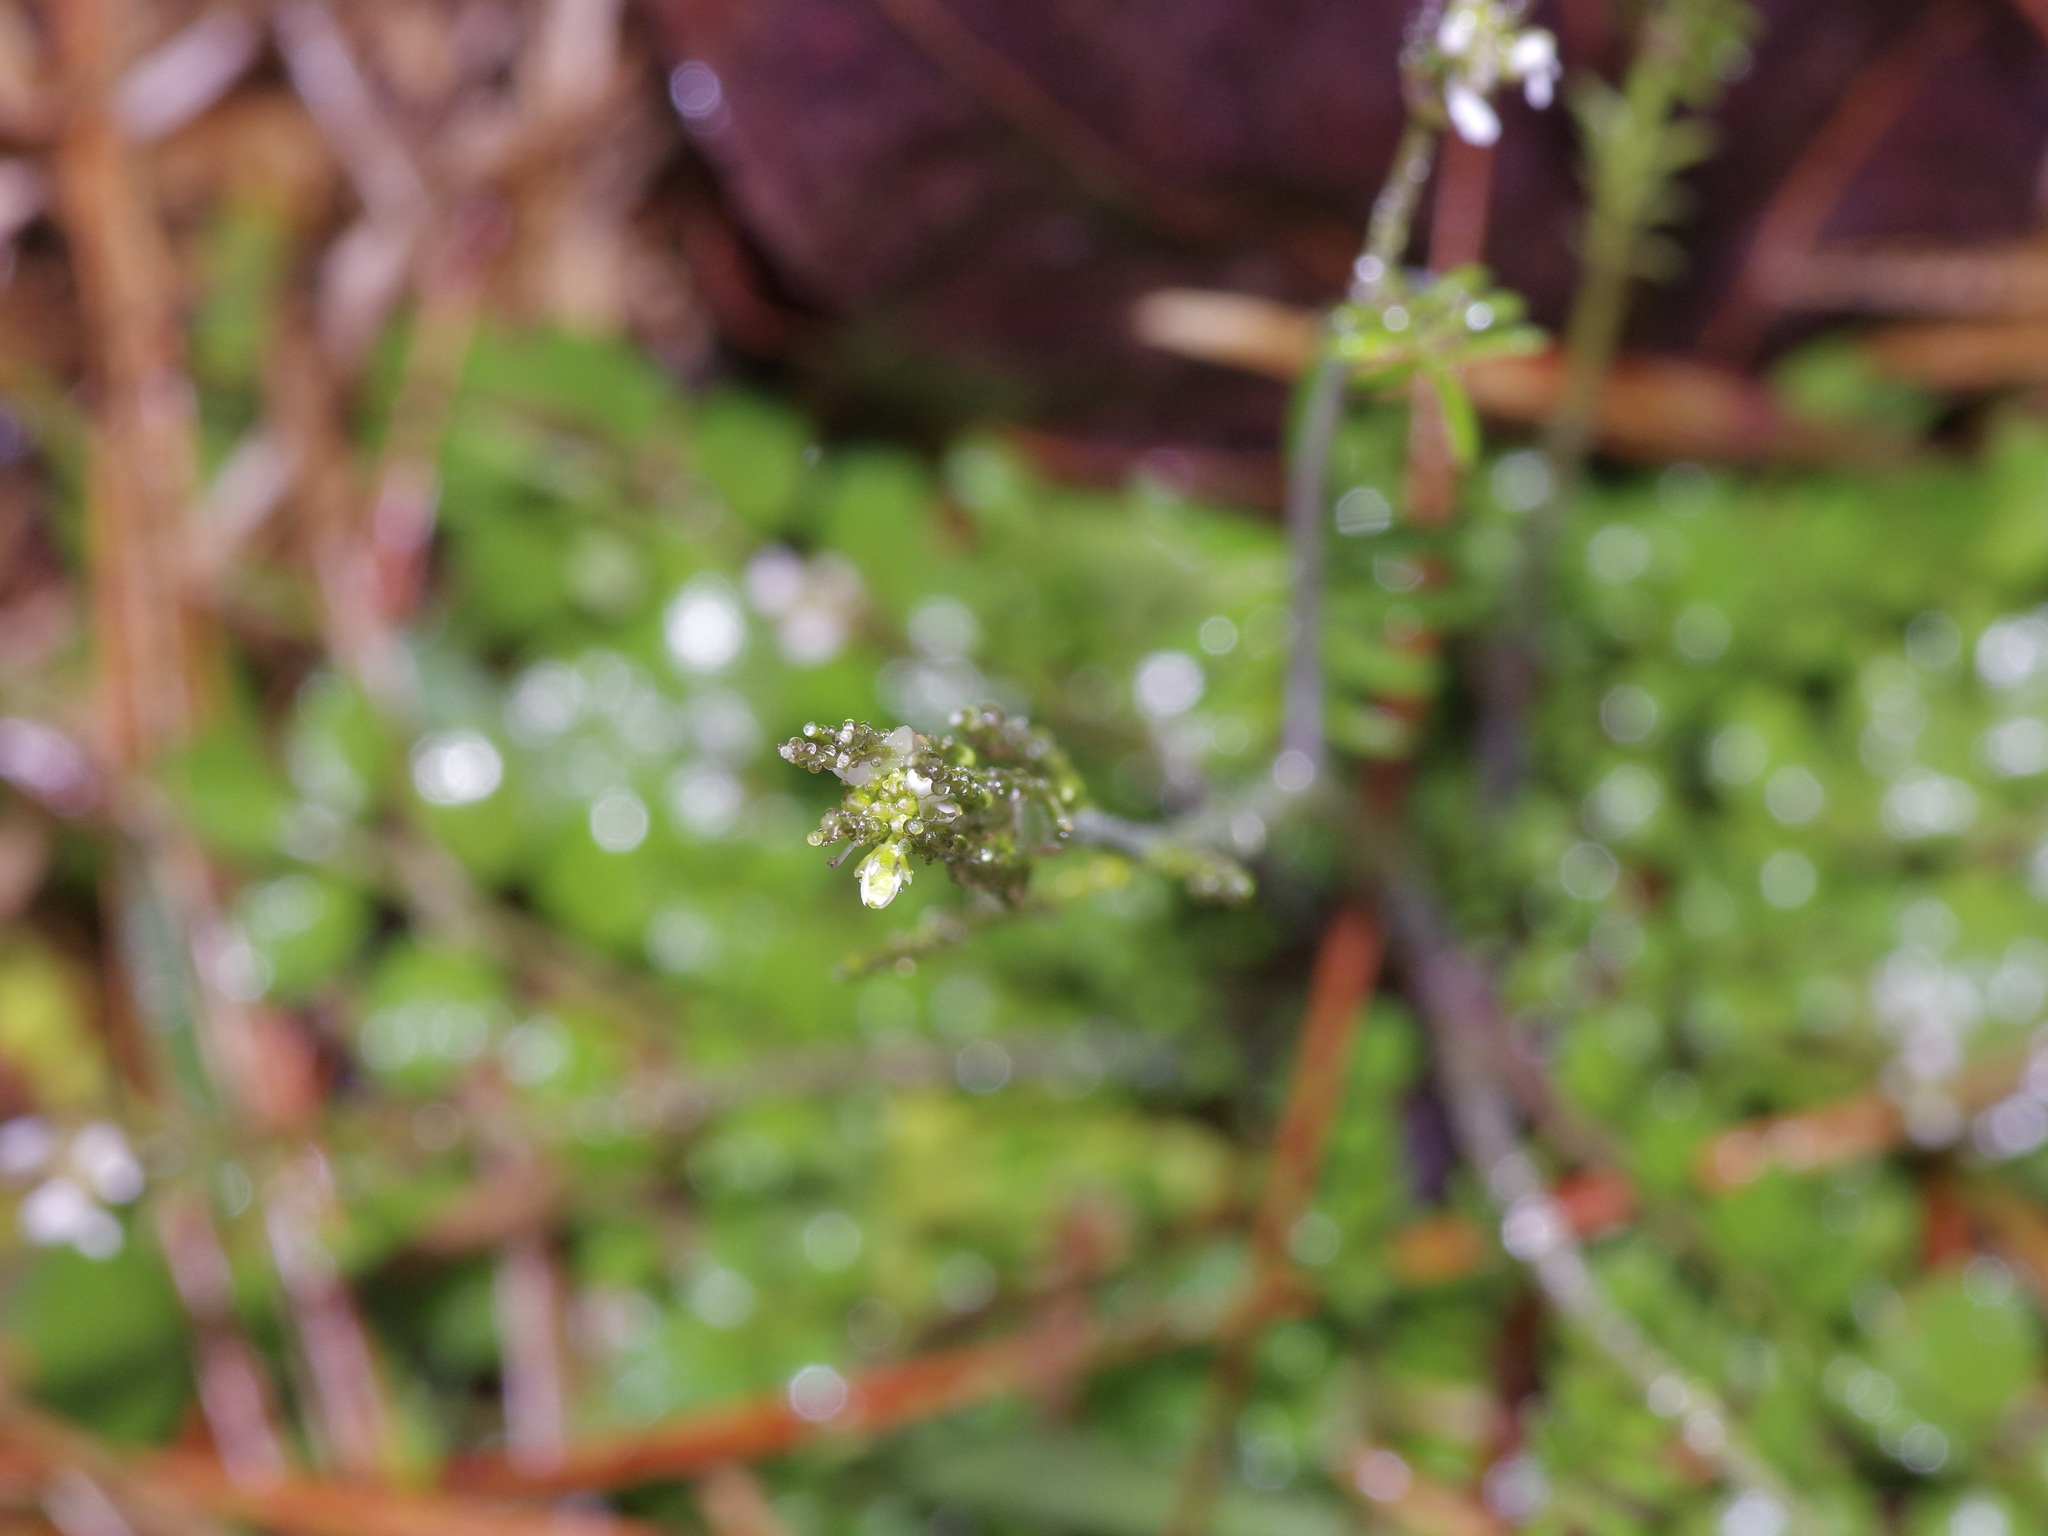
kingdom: Plantae
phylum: Tracheophyta
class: Magnoliopsida
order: Brassicales
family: Brassicaceae
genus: Cardamine
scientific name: Cardamine hirsuta
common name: Hairy bittercress
